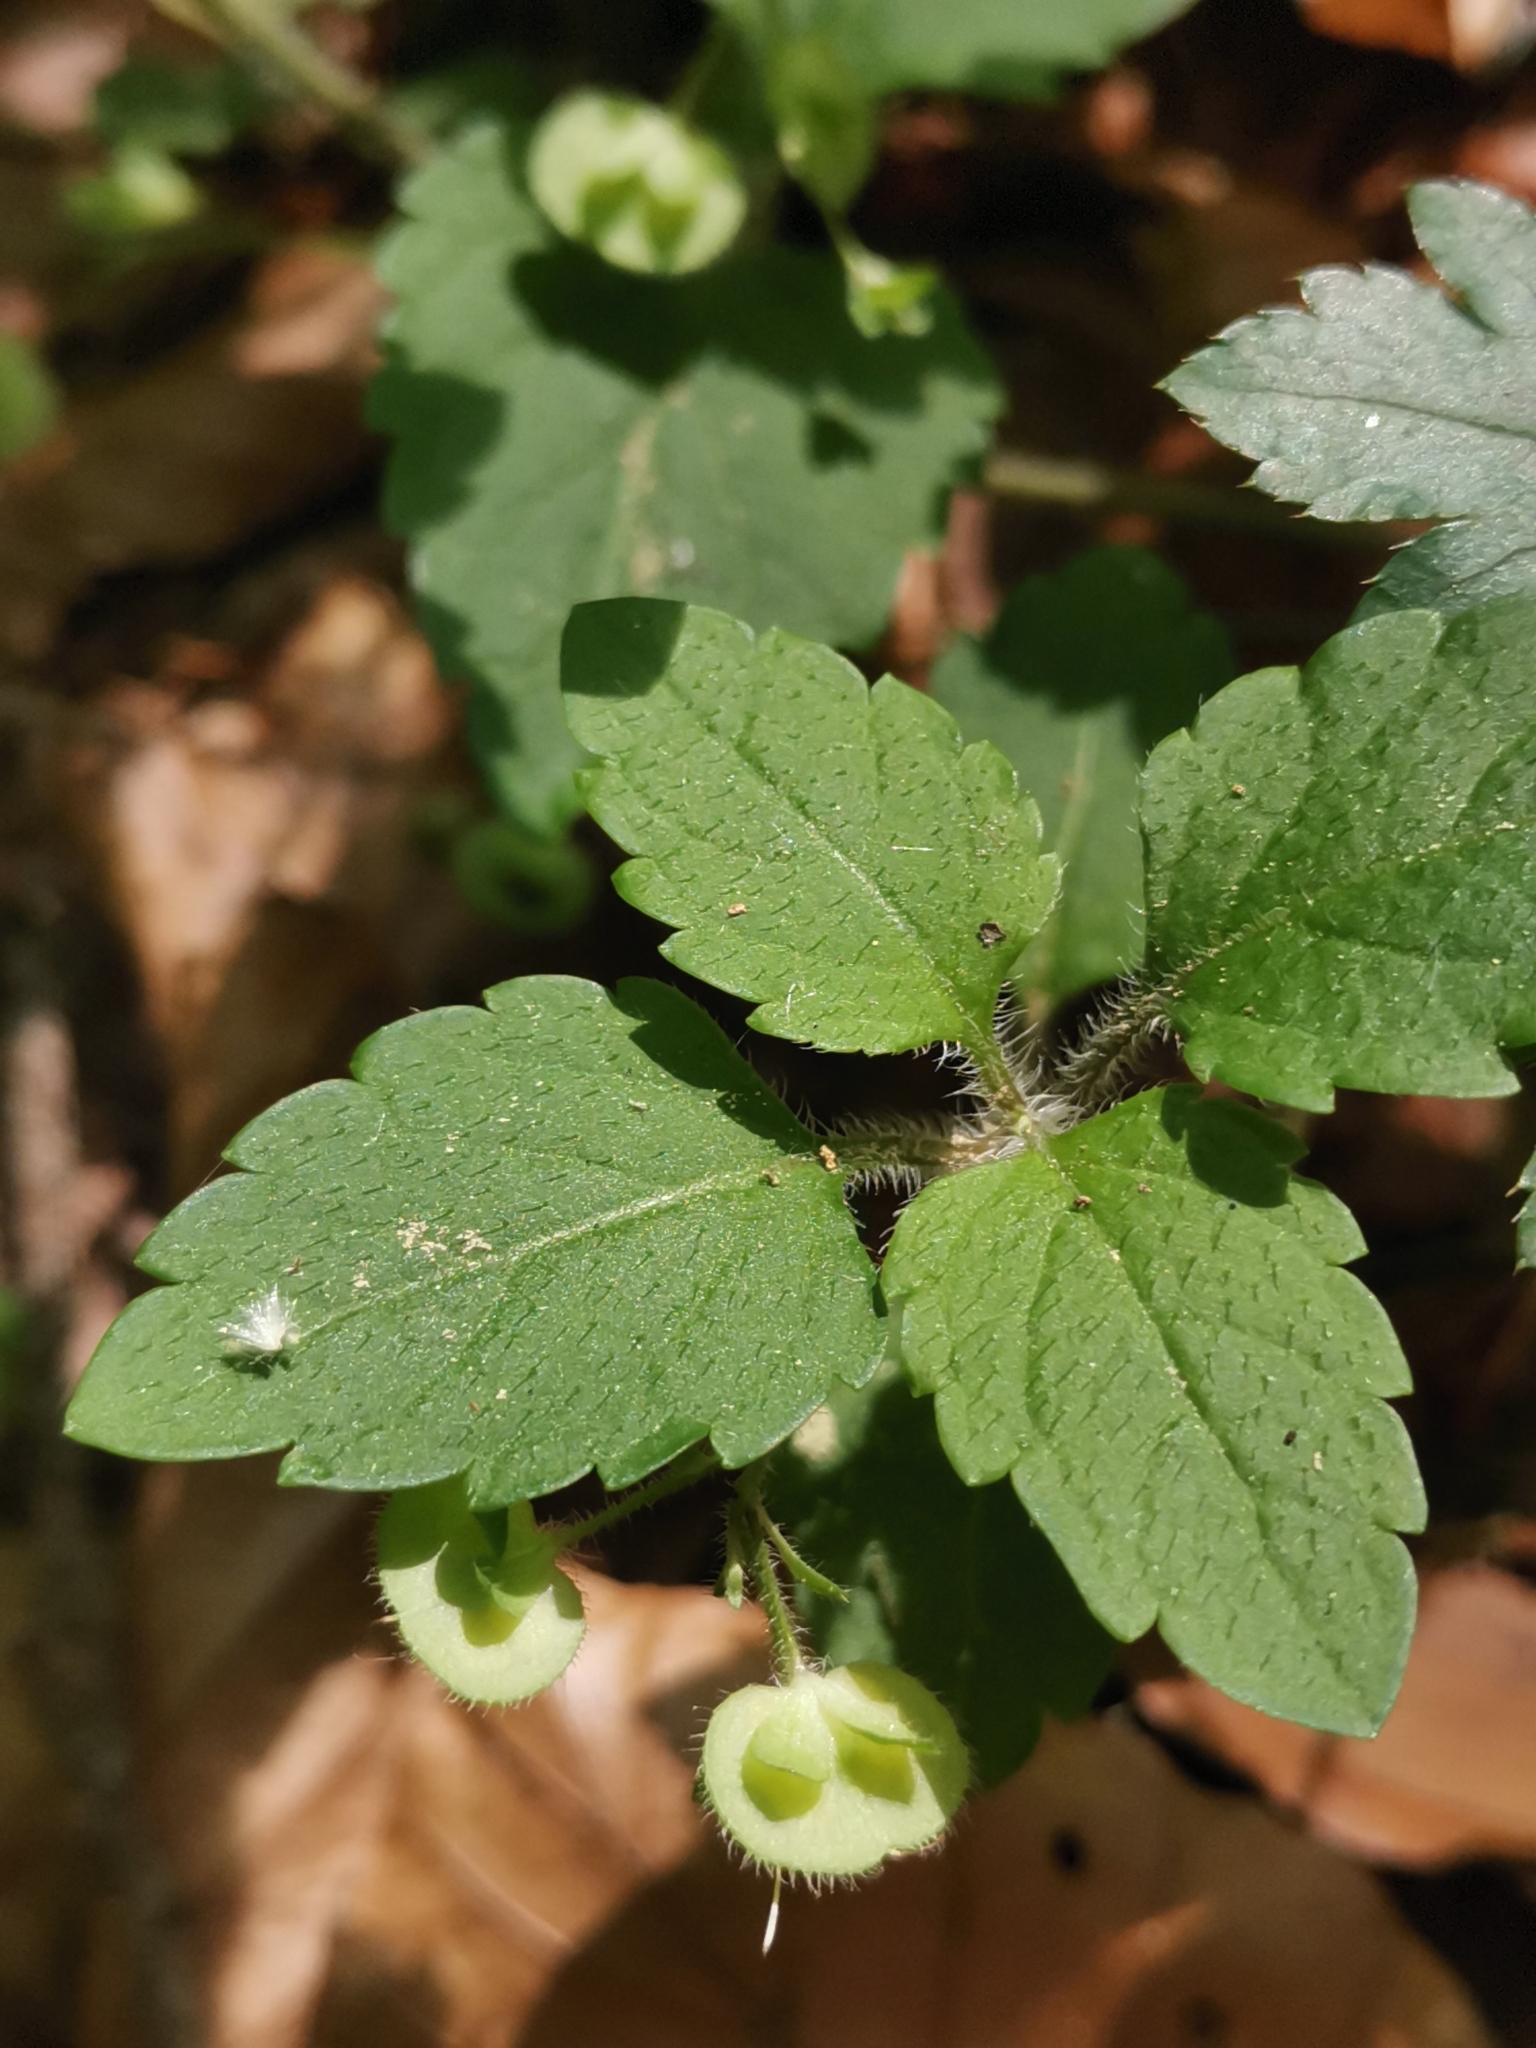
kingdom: Plantae
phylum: Tracheophyta
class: Magnoliopsida
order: Lamiales
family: Plantaginaceae
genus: Veronica
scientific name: Veronica montana
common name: Wood speedwell
